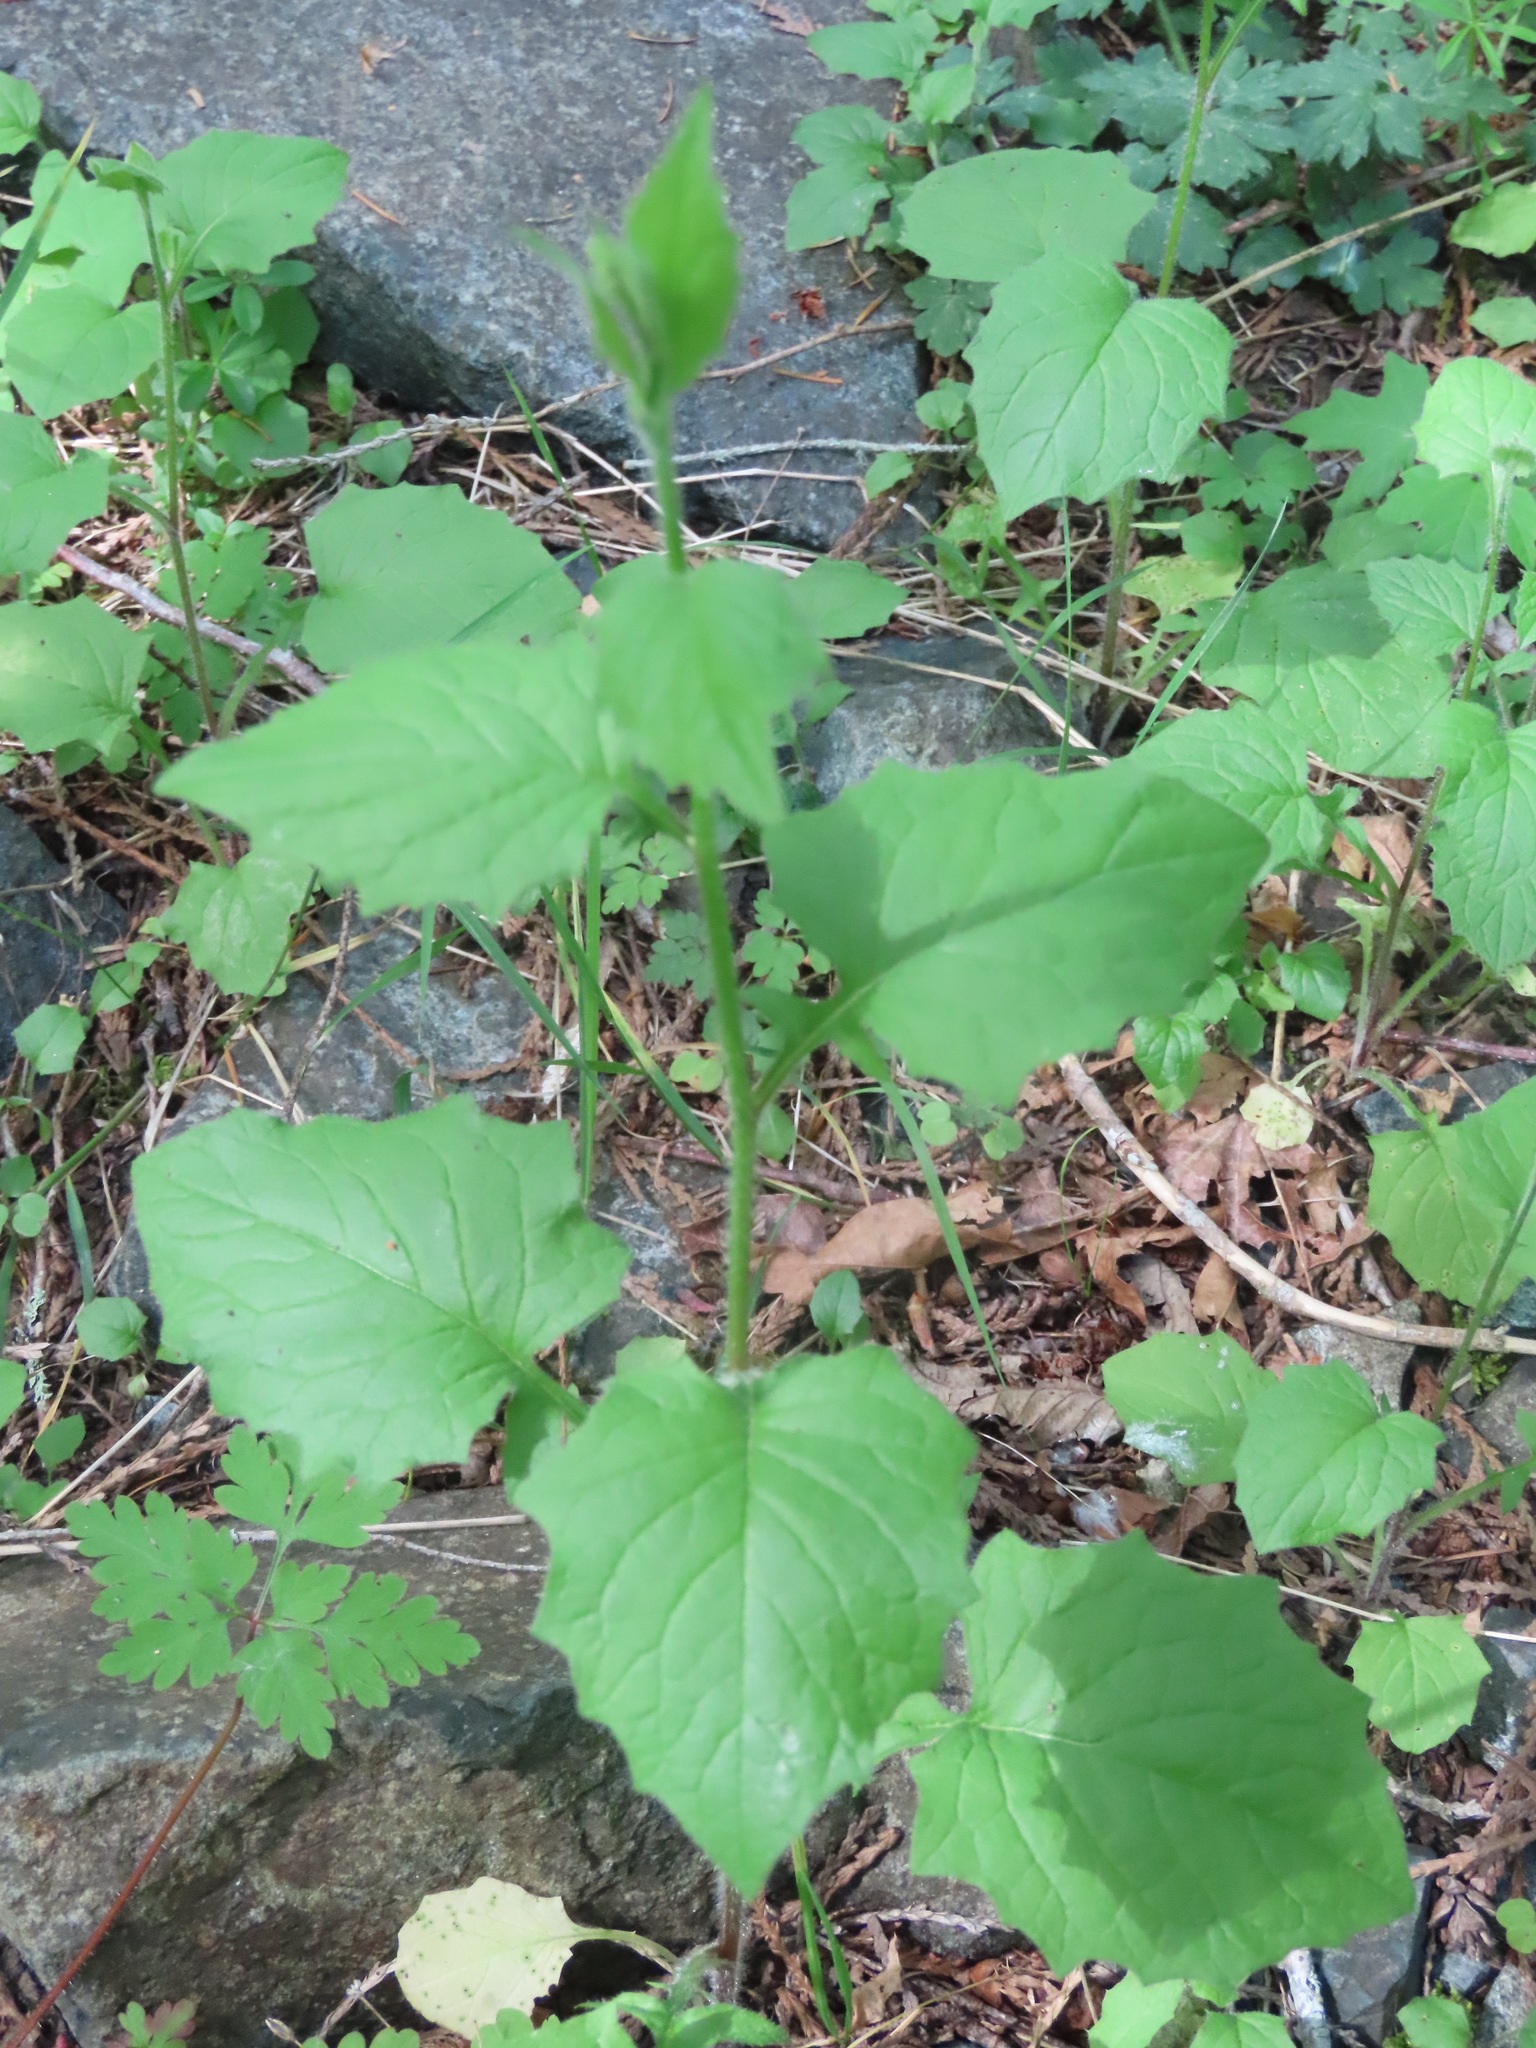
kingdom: Plantae
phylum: Tracheophyta
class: Magnoliopsida
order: Asterales
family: Asteraceae
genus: Lapsana
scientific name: Lapsana communis
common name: Nipplewort
